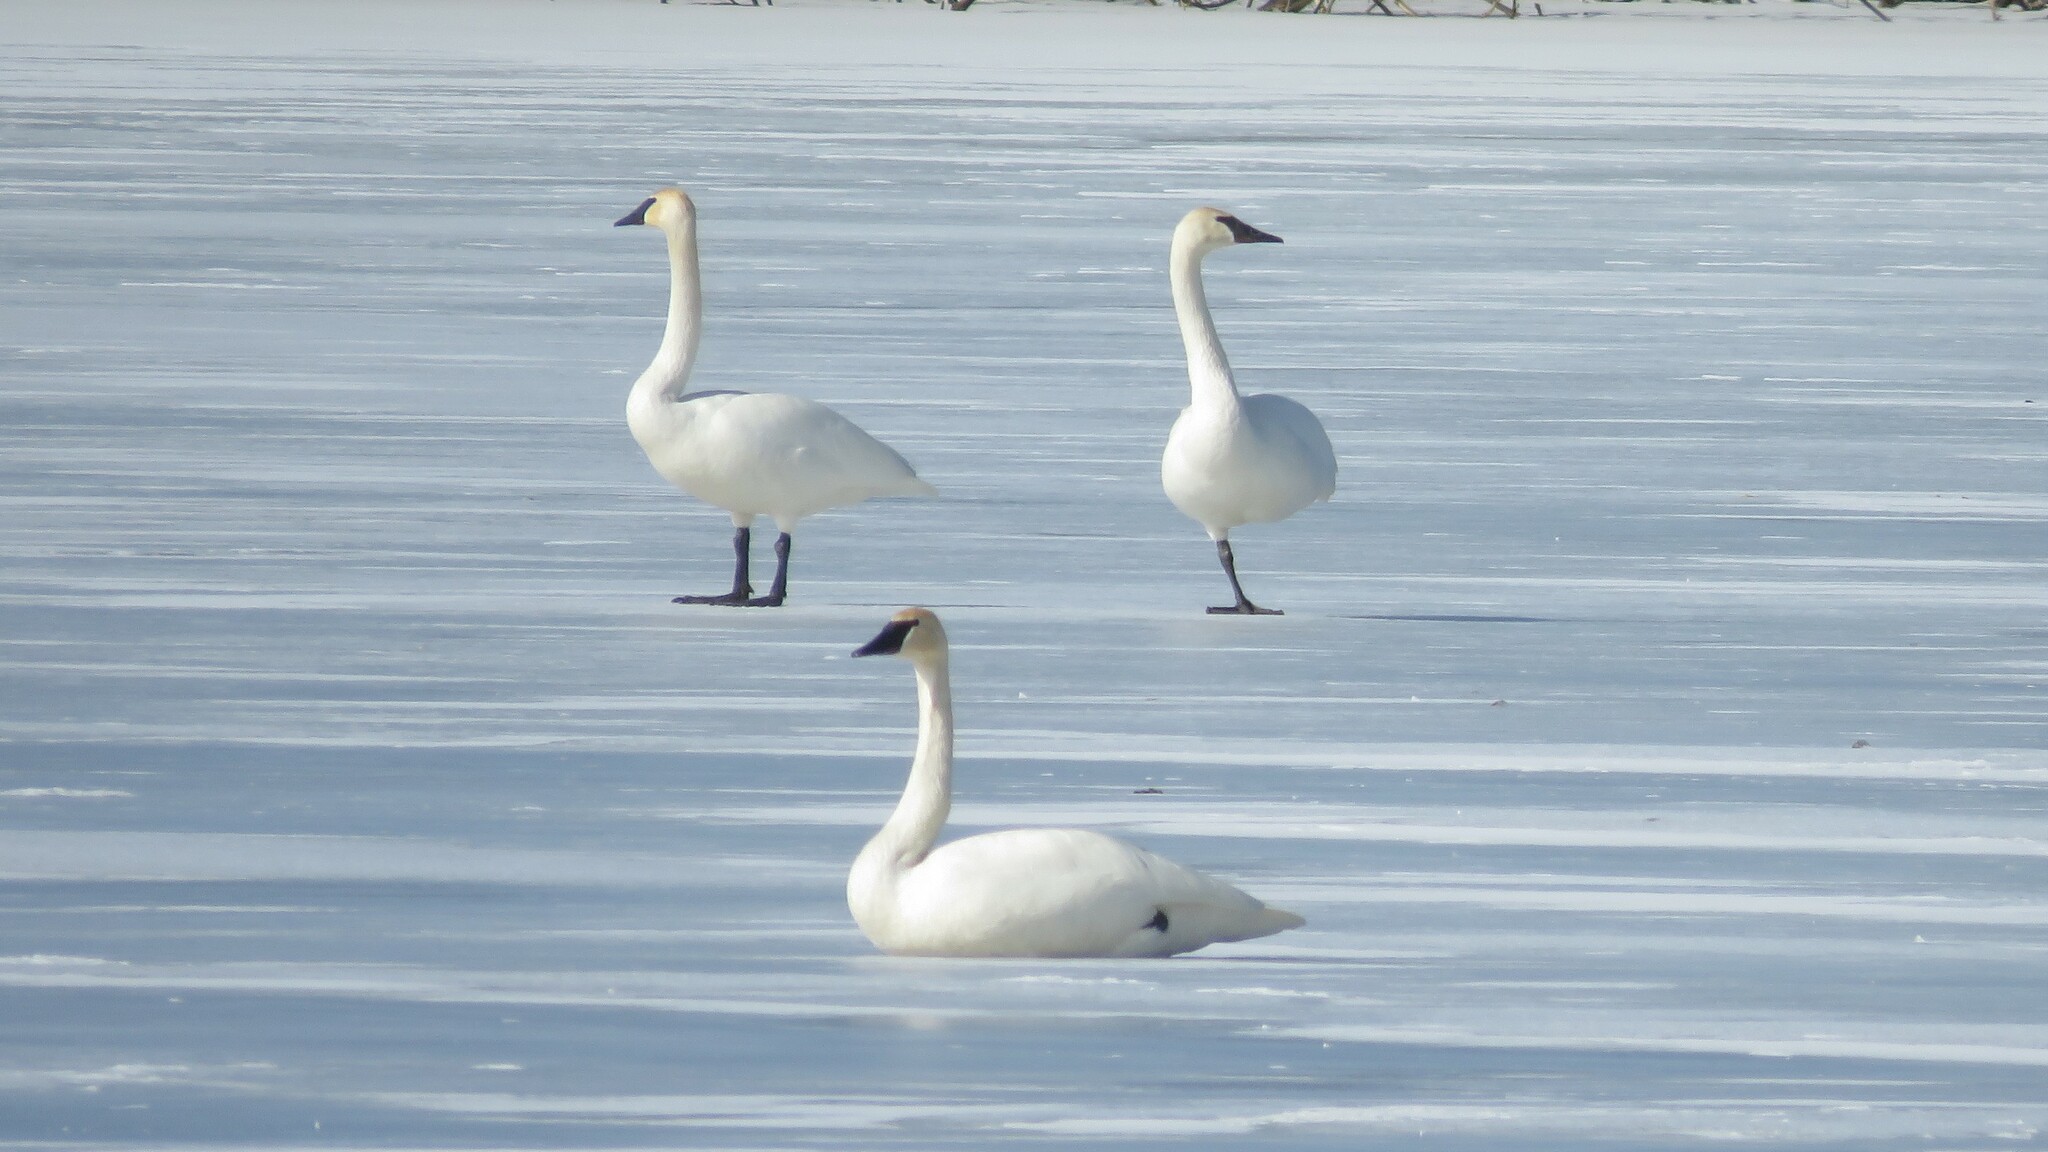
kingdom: Animalia
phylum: Chordata
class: Aves
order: Anseriformes
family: Anatidae
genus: Cygnus
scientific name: Cygnus buccinator
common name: Trumpeter swan
